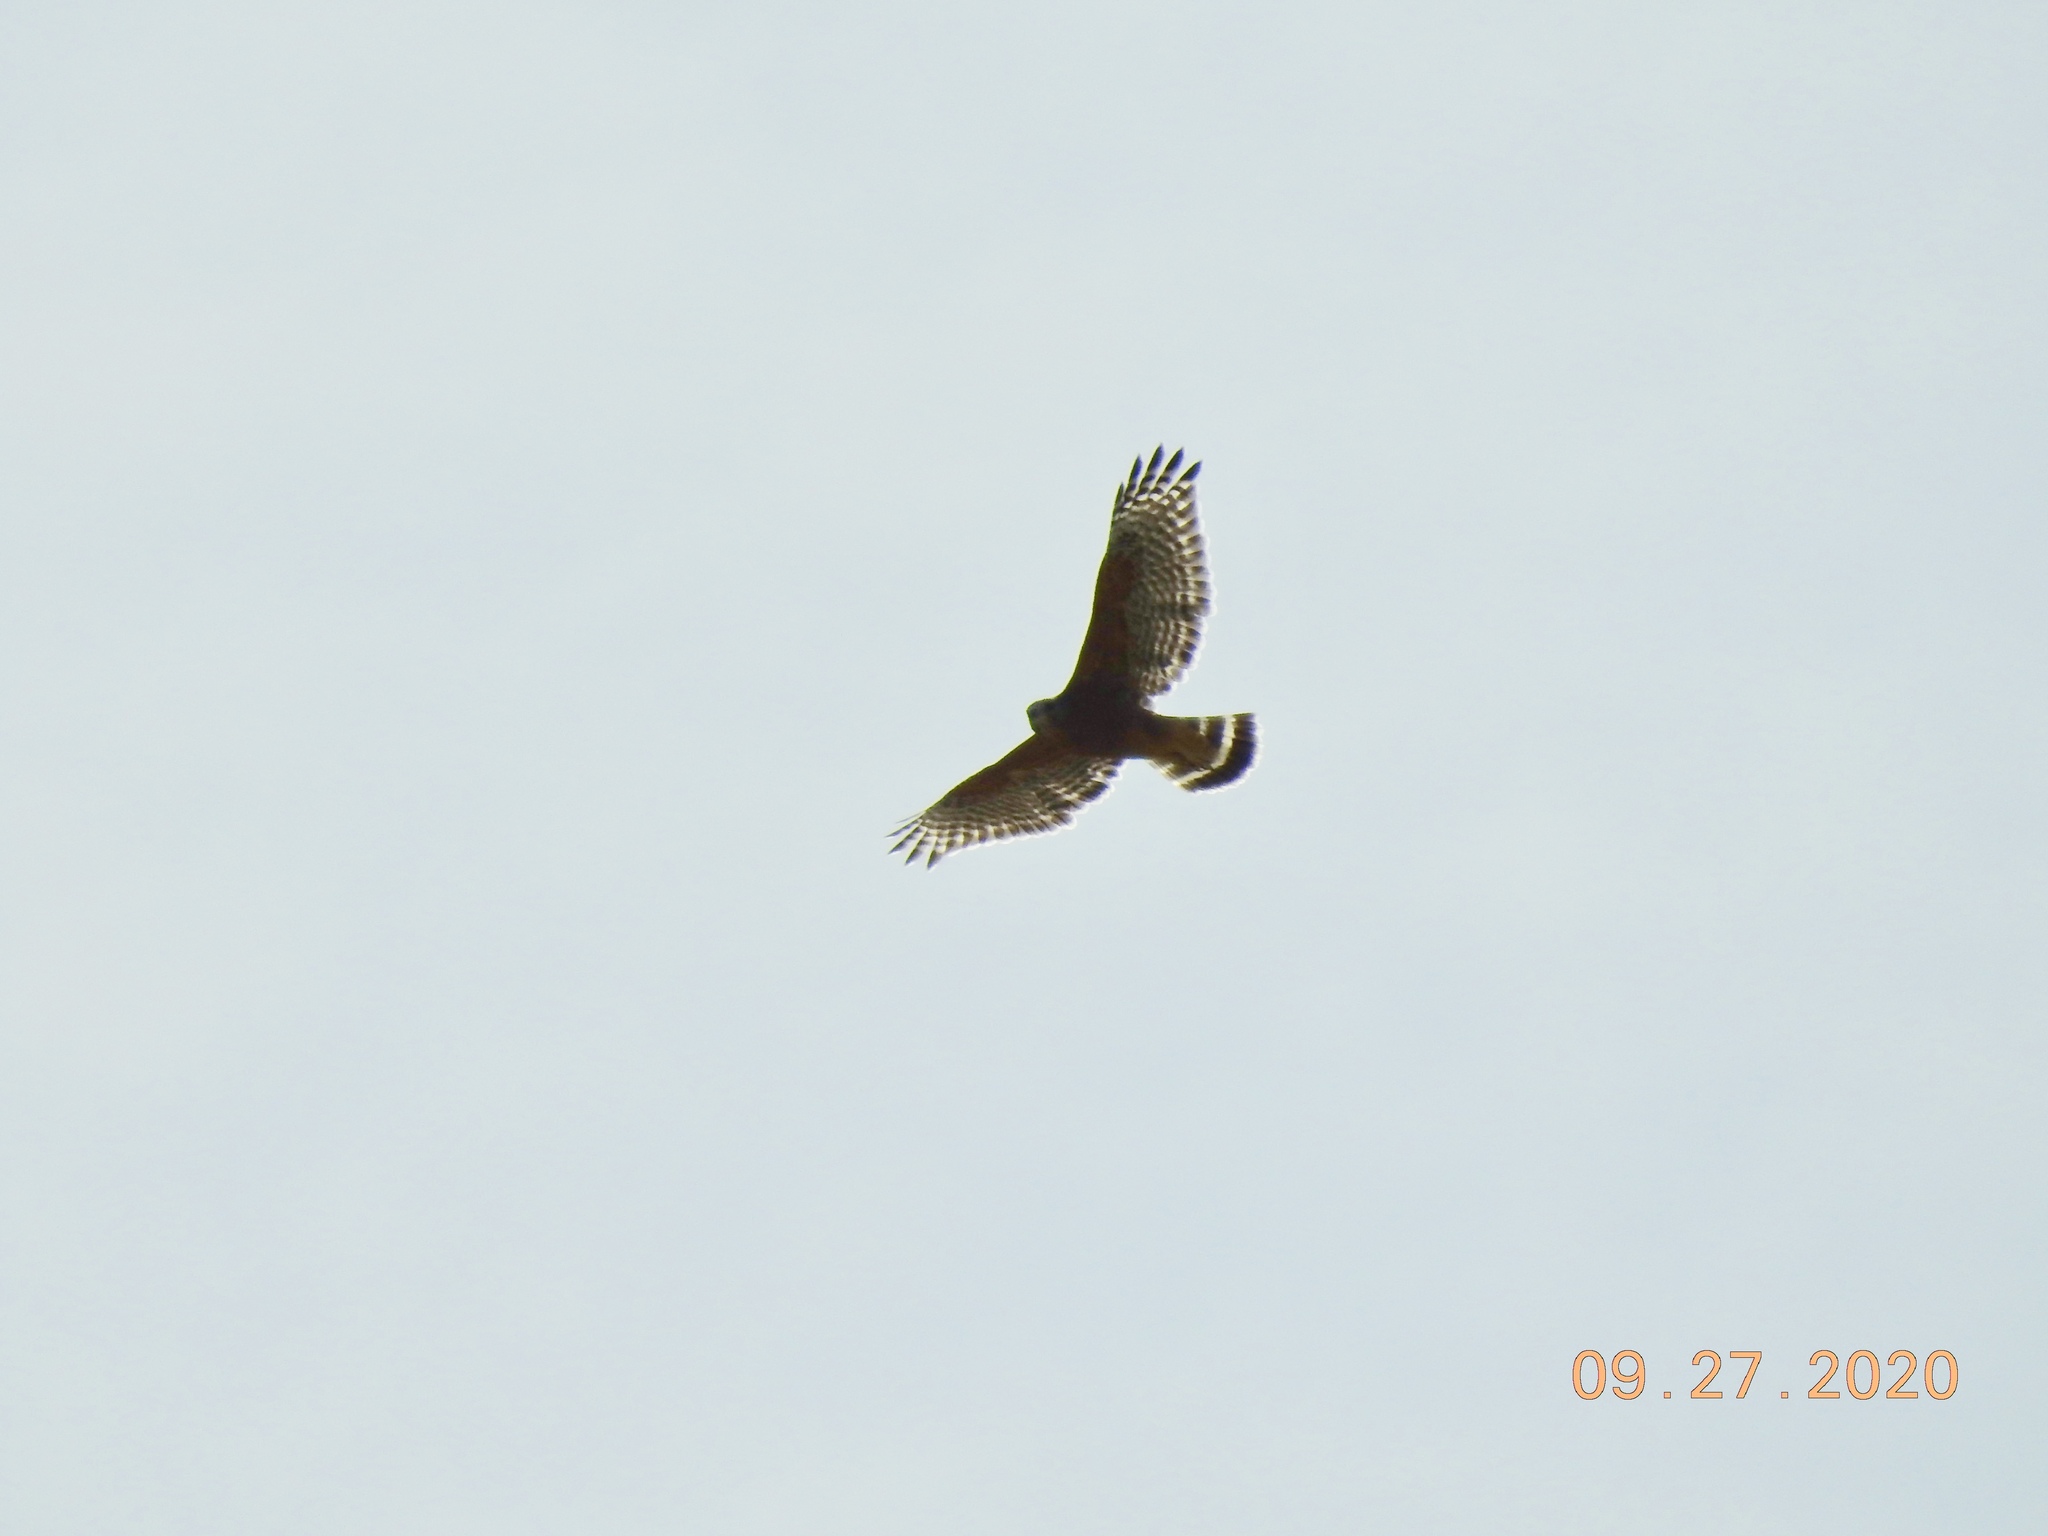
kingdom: Animalia
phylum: Chordata
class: Aves
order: Accipitriformes
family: Accipitridae
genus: Buteo
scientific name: Buteo lineatus
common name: Red-shouldered hawk
